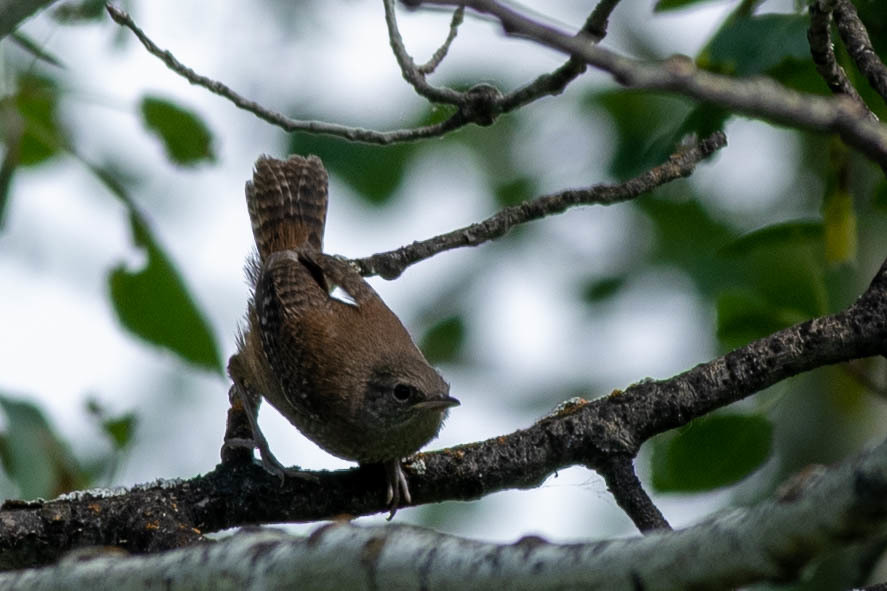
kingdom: Animalia
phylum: Chordata
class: Aves
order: Passeriformes
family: Troglodytidae
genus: Troglodytes
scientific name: Troglodytes aedon
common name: House wren
